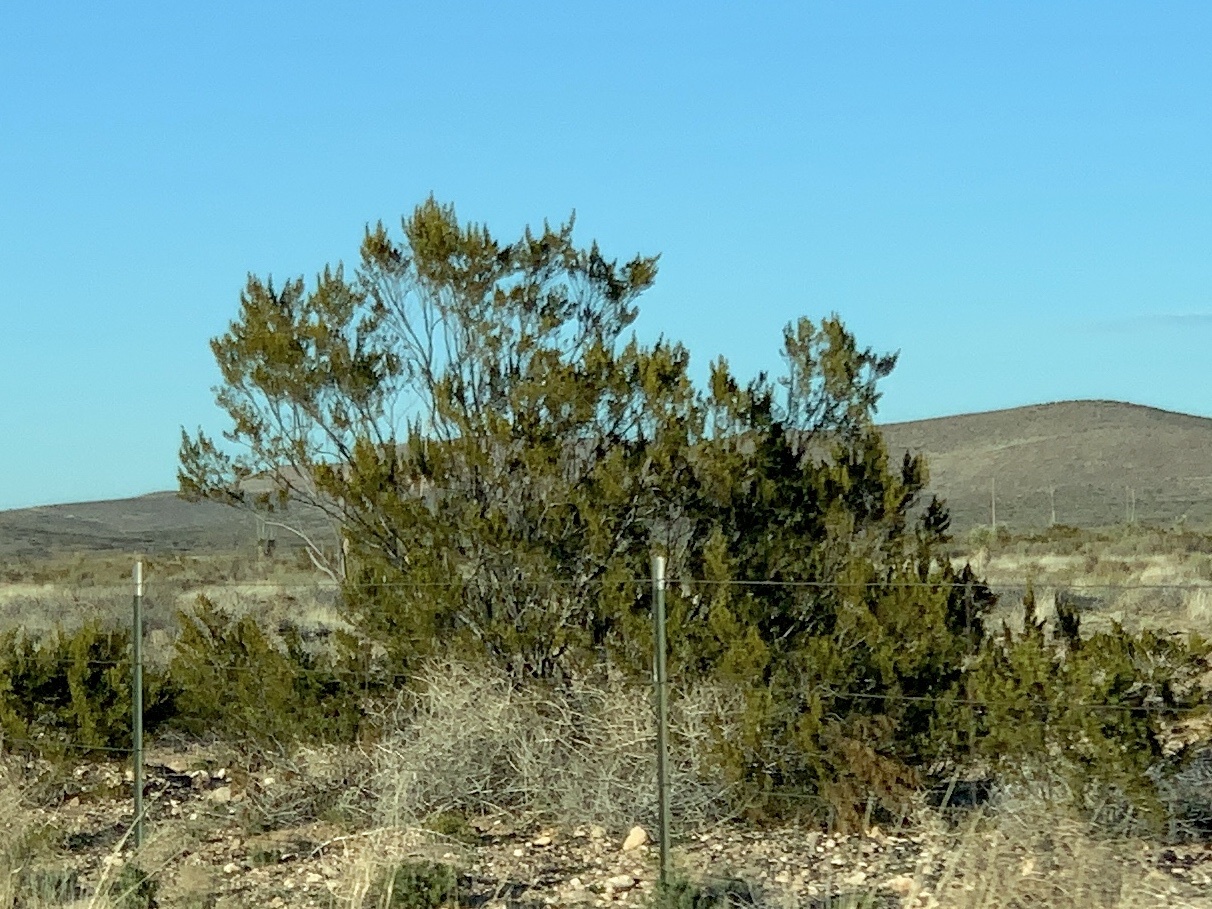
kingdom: Plantae
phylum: Tracheophyta
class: Magnoliopsida
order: Zygophyllales
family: Zygophyllaceae
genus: Larrea
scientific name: Larrea tridentata
